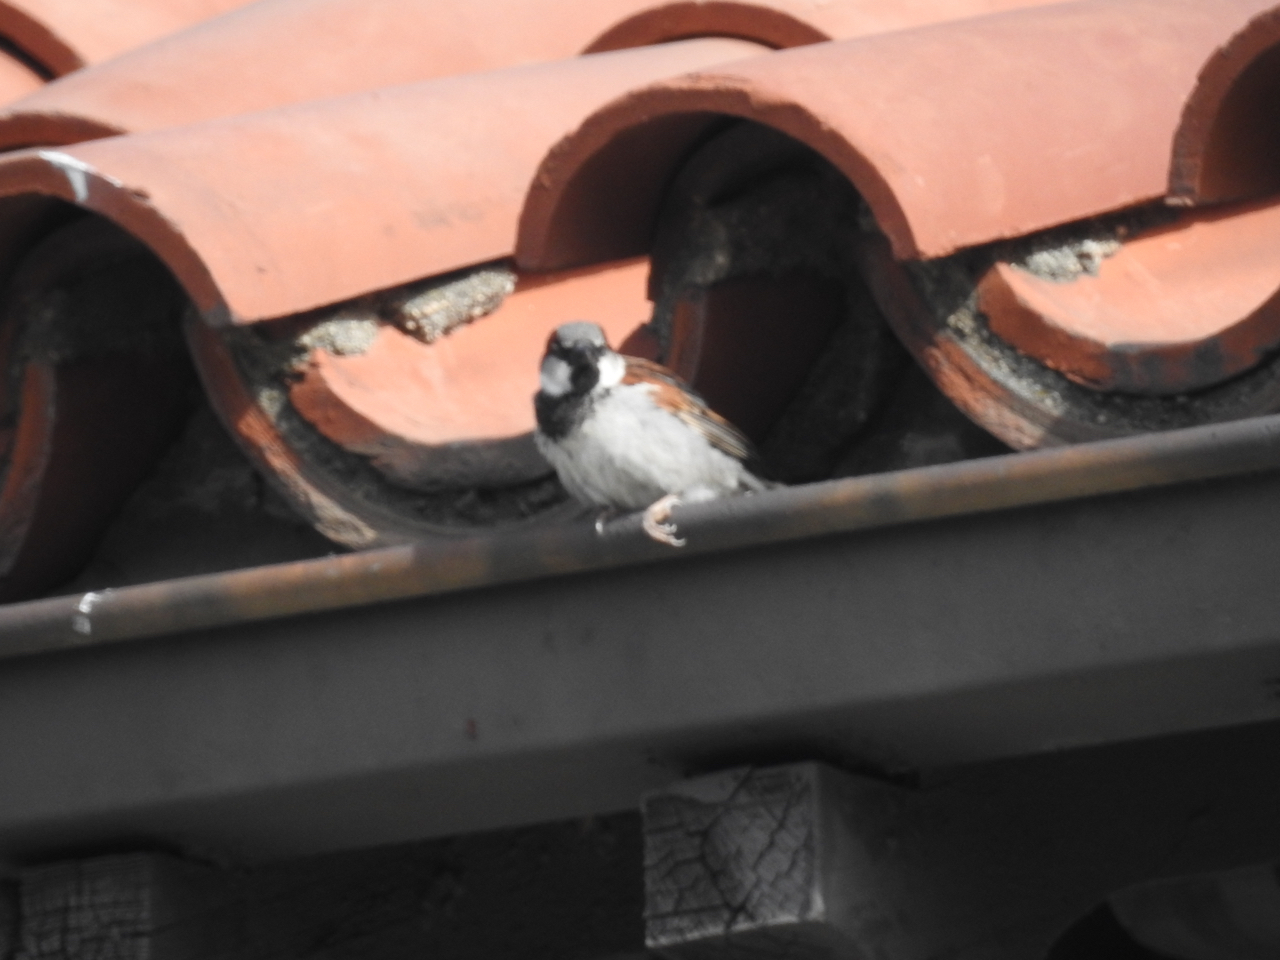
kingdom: Animalia
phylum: Chordata
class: Aves
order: Passeriformes
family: Passeridae
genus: Passer
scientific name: Passer domesticus
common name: House sparrow
